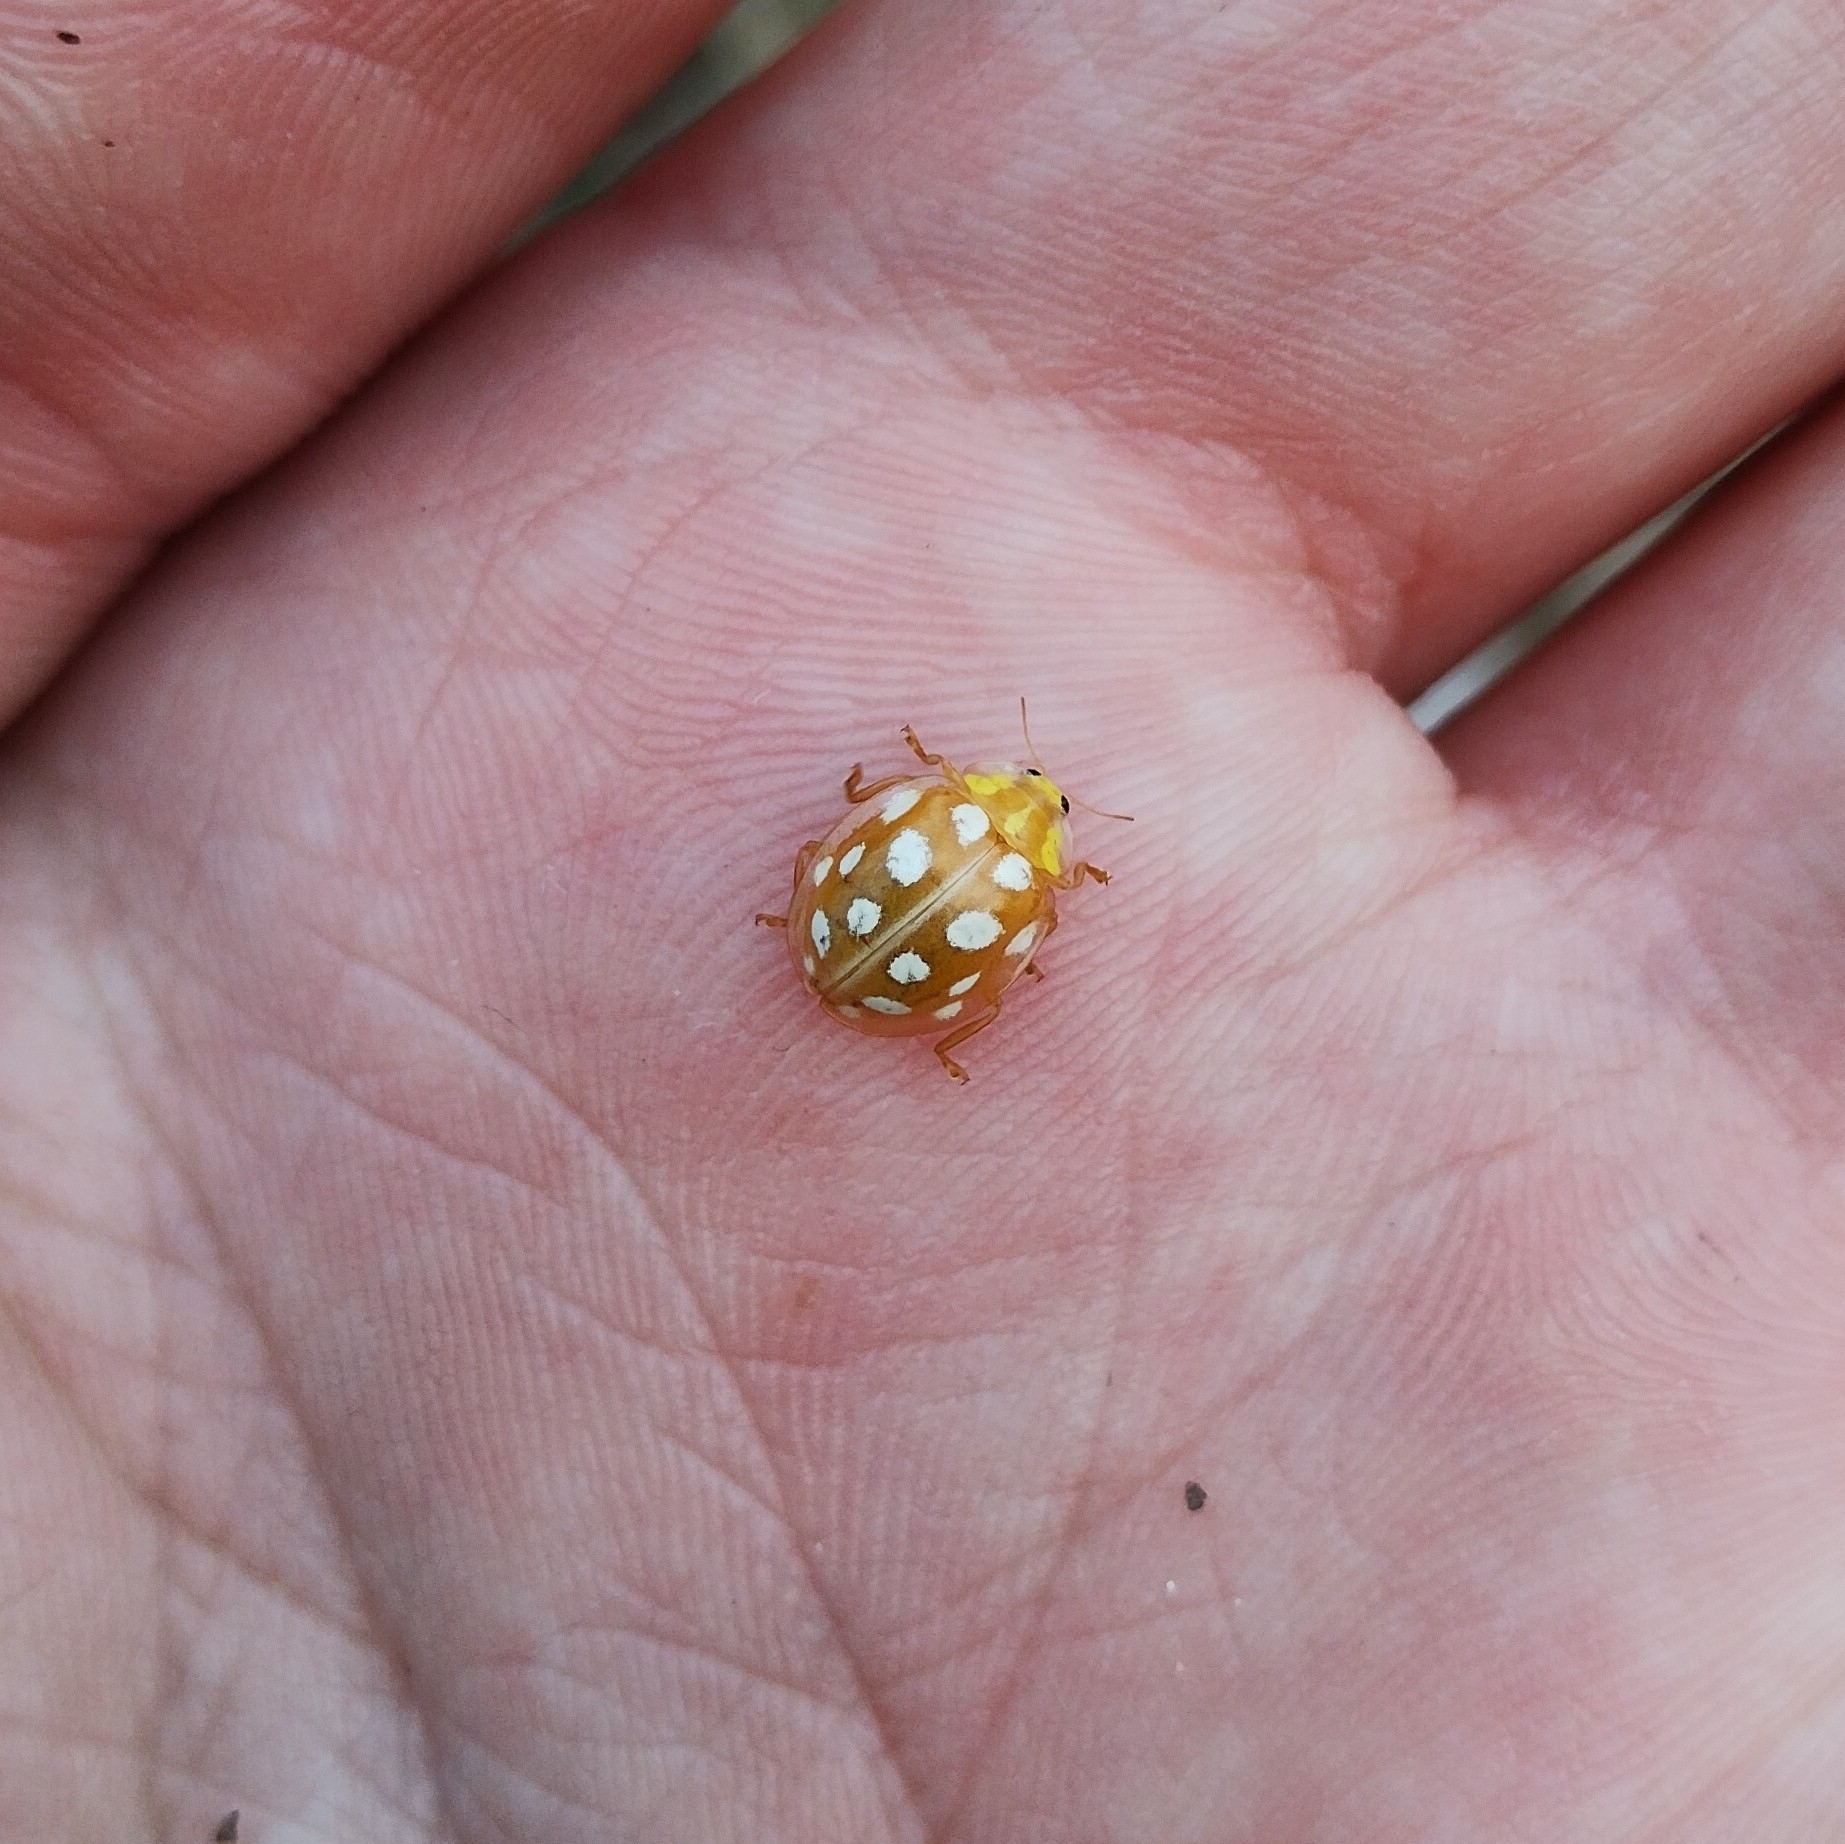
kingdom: Animalia
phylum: Arthropoda
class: Insecta
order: Coleoptera
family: Coccinellidae
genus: Halyzia
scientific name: Halyzia sedecimguttata
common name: Orange ladybird
